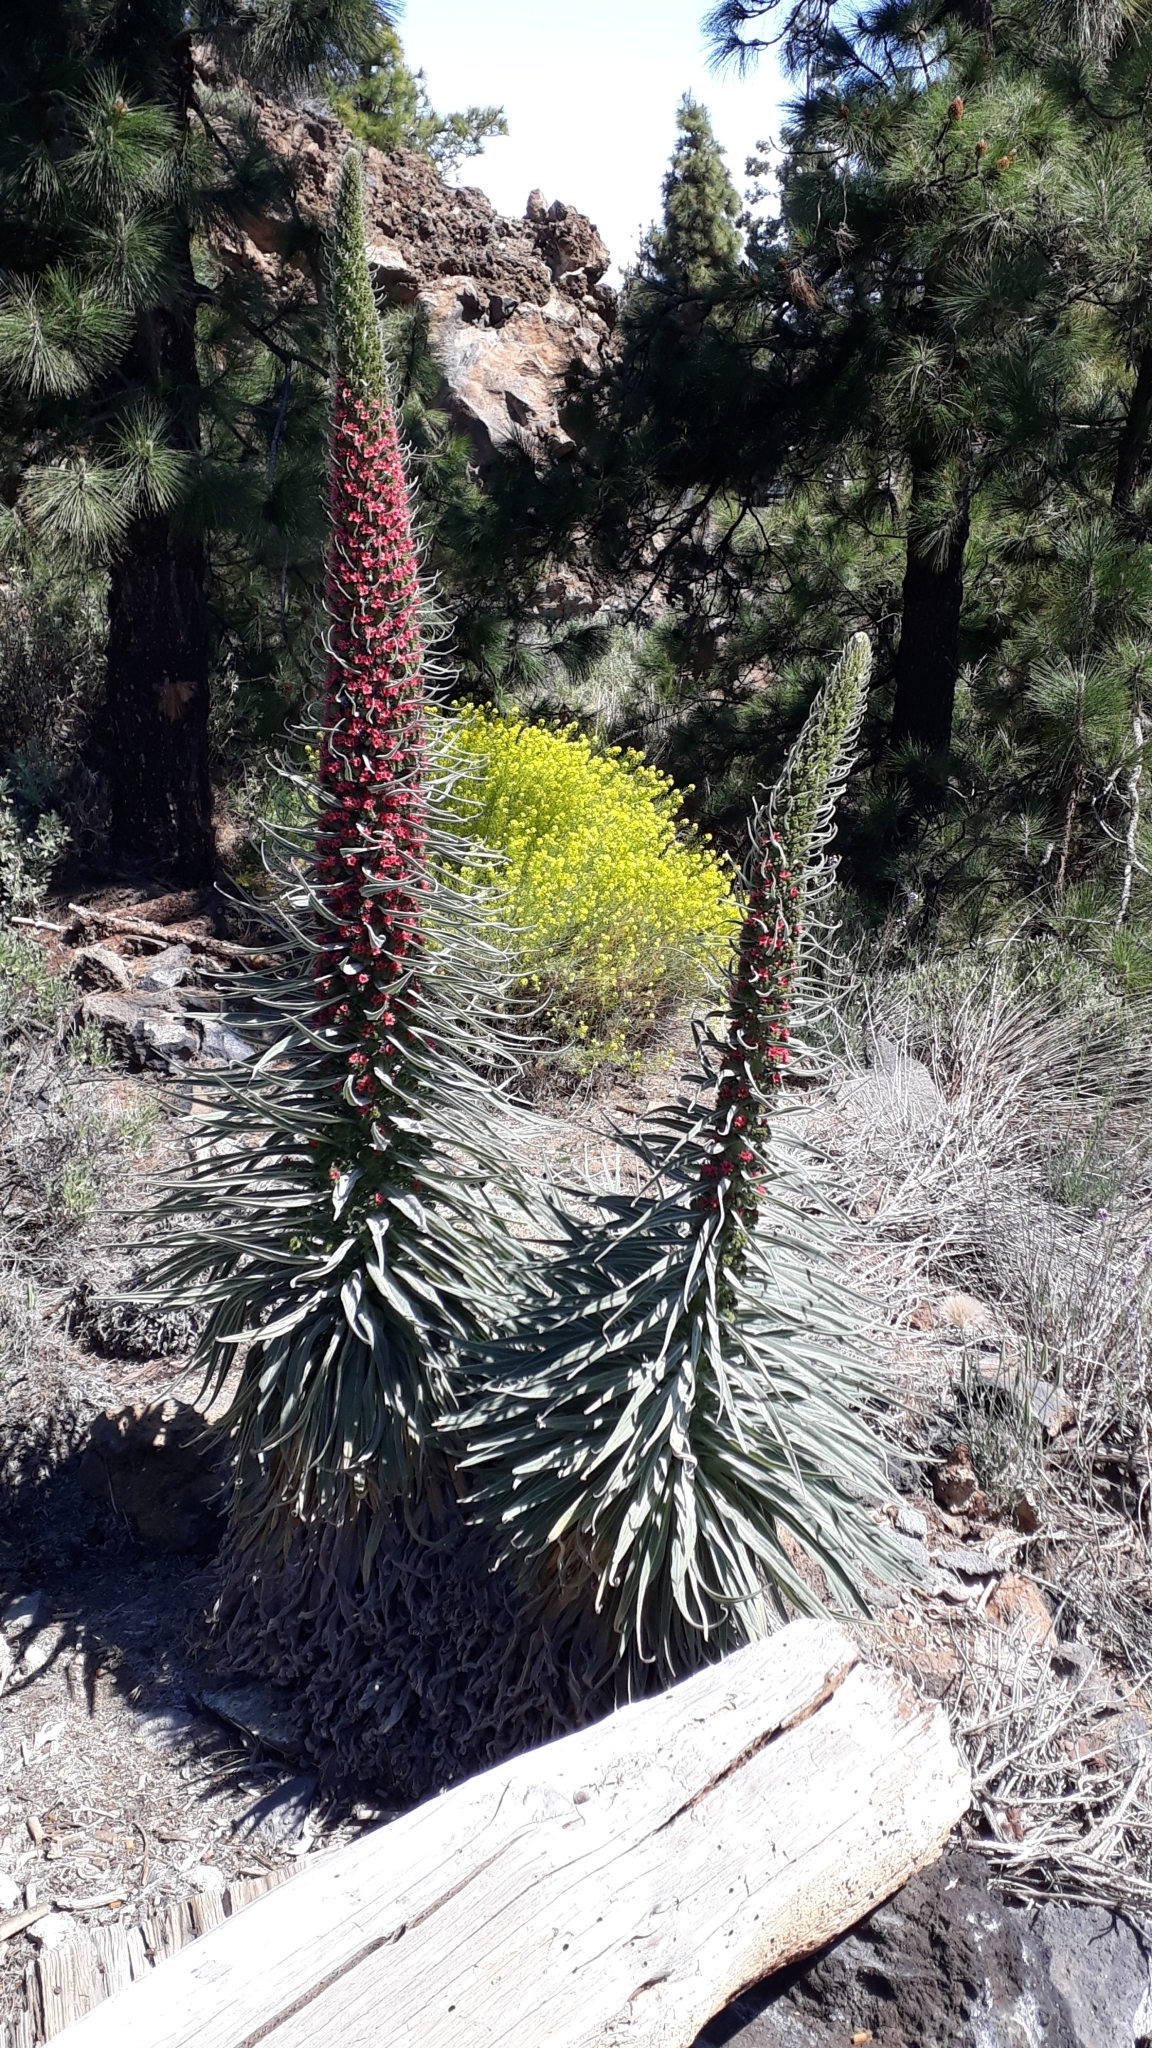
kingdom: Plantae
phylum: Tracheophyta
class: Magnoliopsida
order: Boraginales
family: Boraginaceae
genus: Echium
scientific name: Echium wildpretii
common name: Tower-of-jewels
